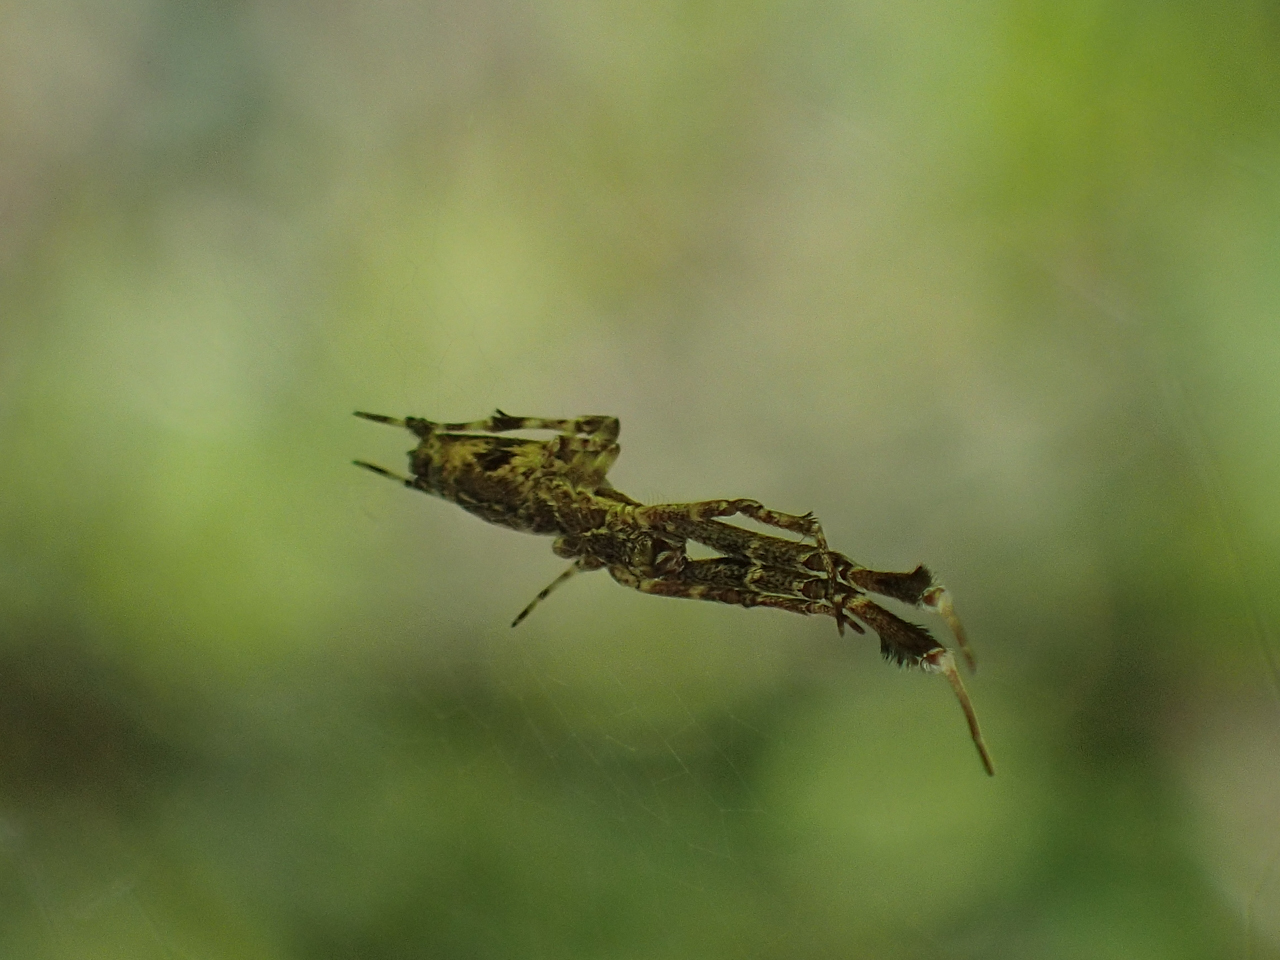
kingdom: Animalia
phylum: Arthropoda
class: Arachnida
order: Araneae
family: Uloboridae
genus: Uloborus
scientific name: Uloborus glomosus
